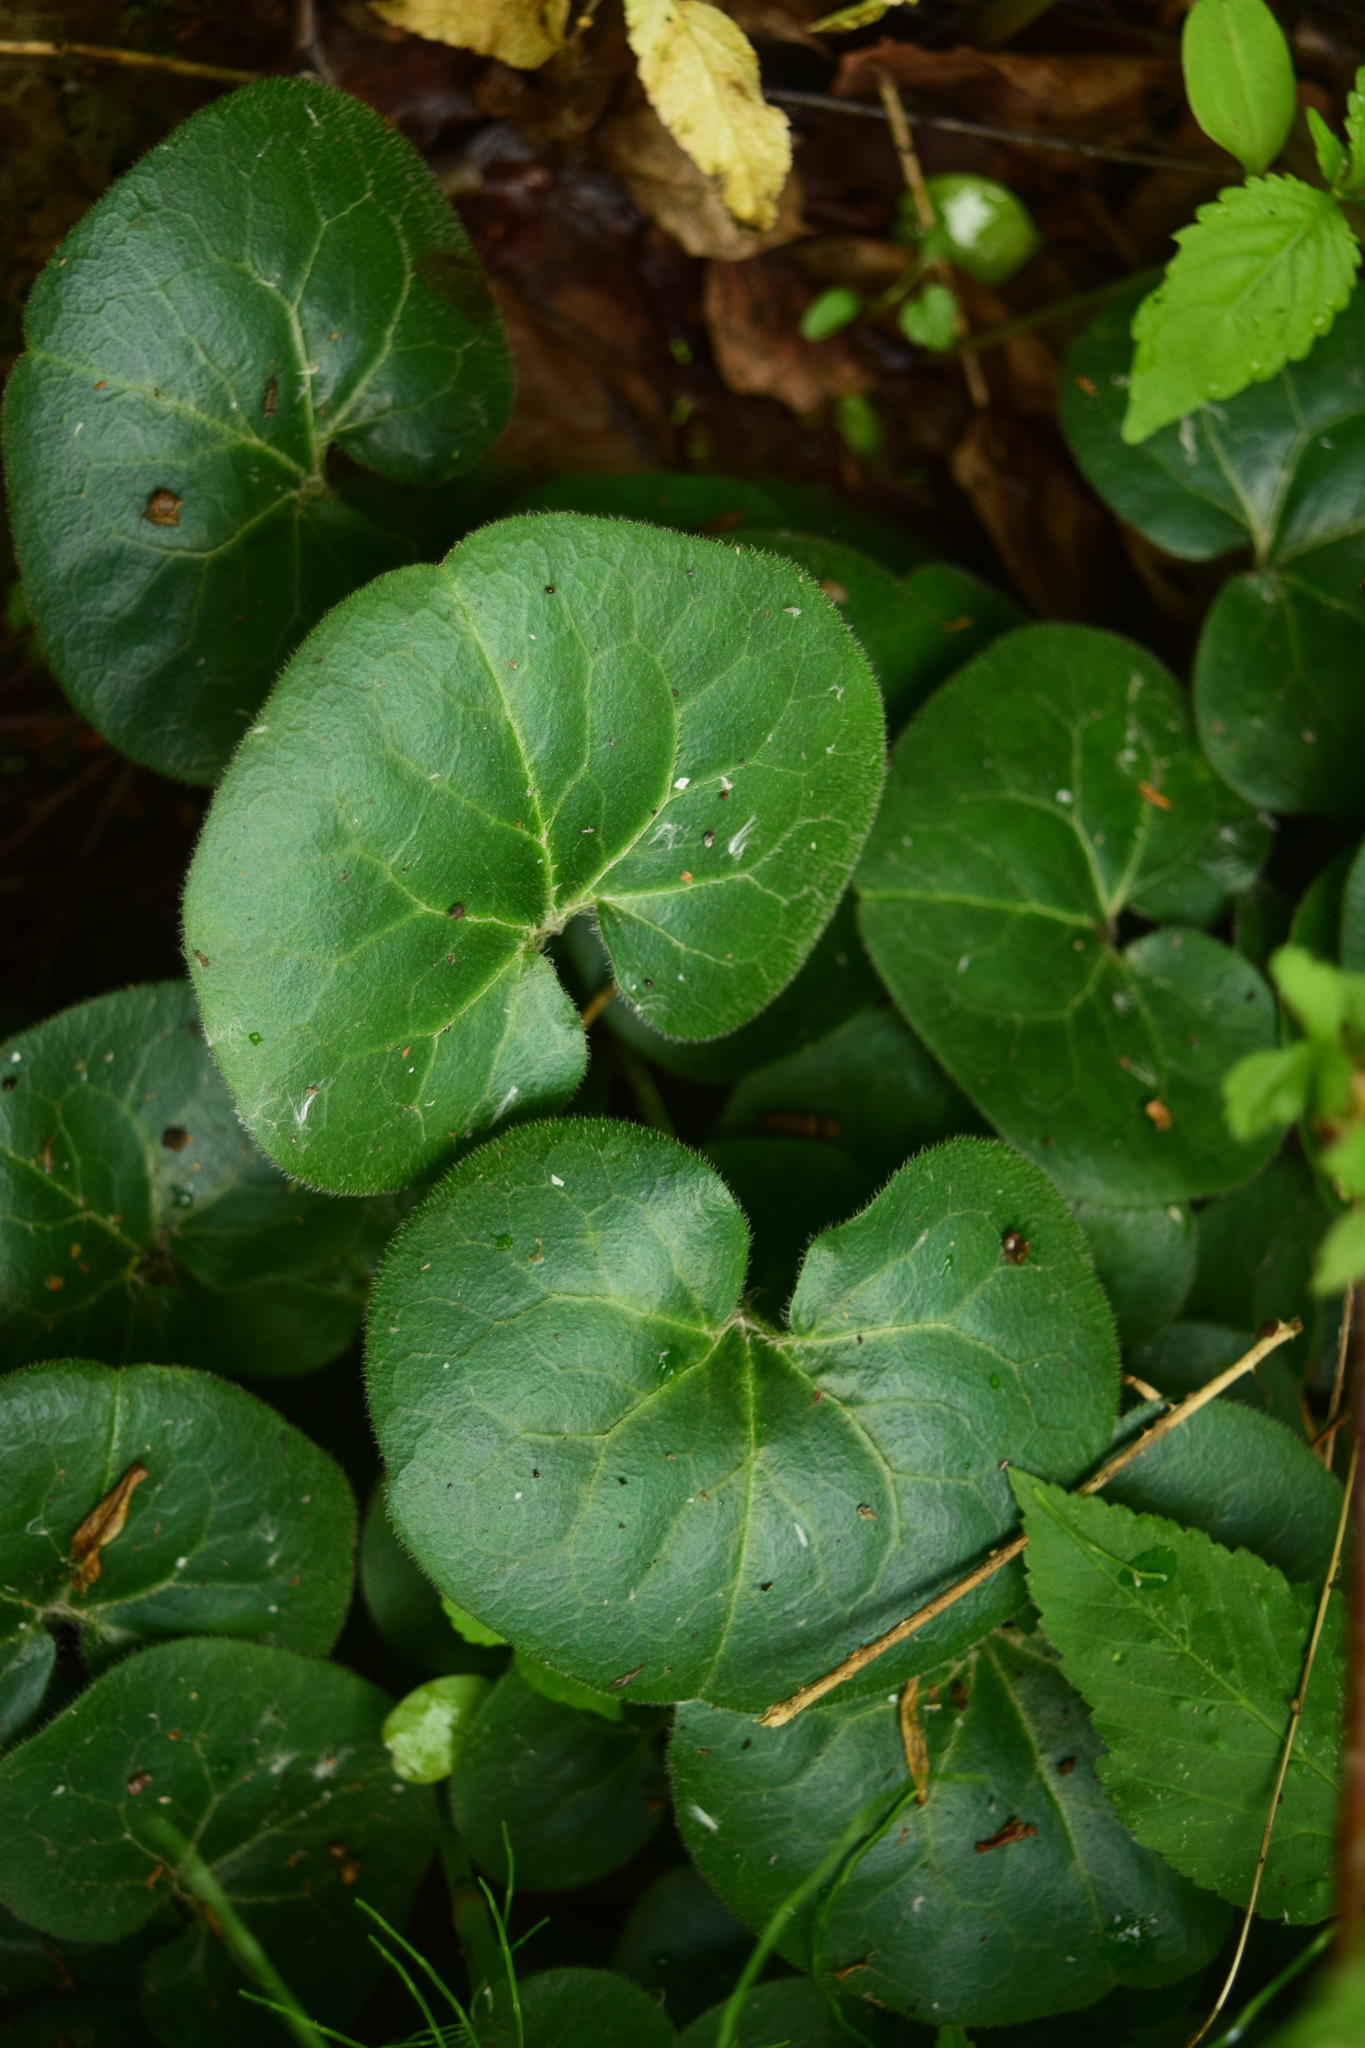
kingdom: Plantae
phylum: Tracheophyta
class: Magnoliopsida
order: Piperales
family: Aristolochiaceae
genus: Asarum
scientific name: Asarum europaeum
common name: Asarabacca
